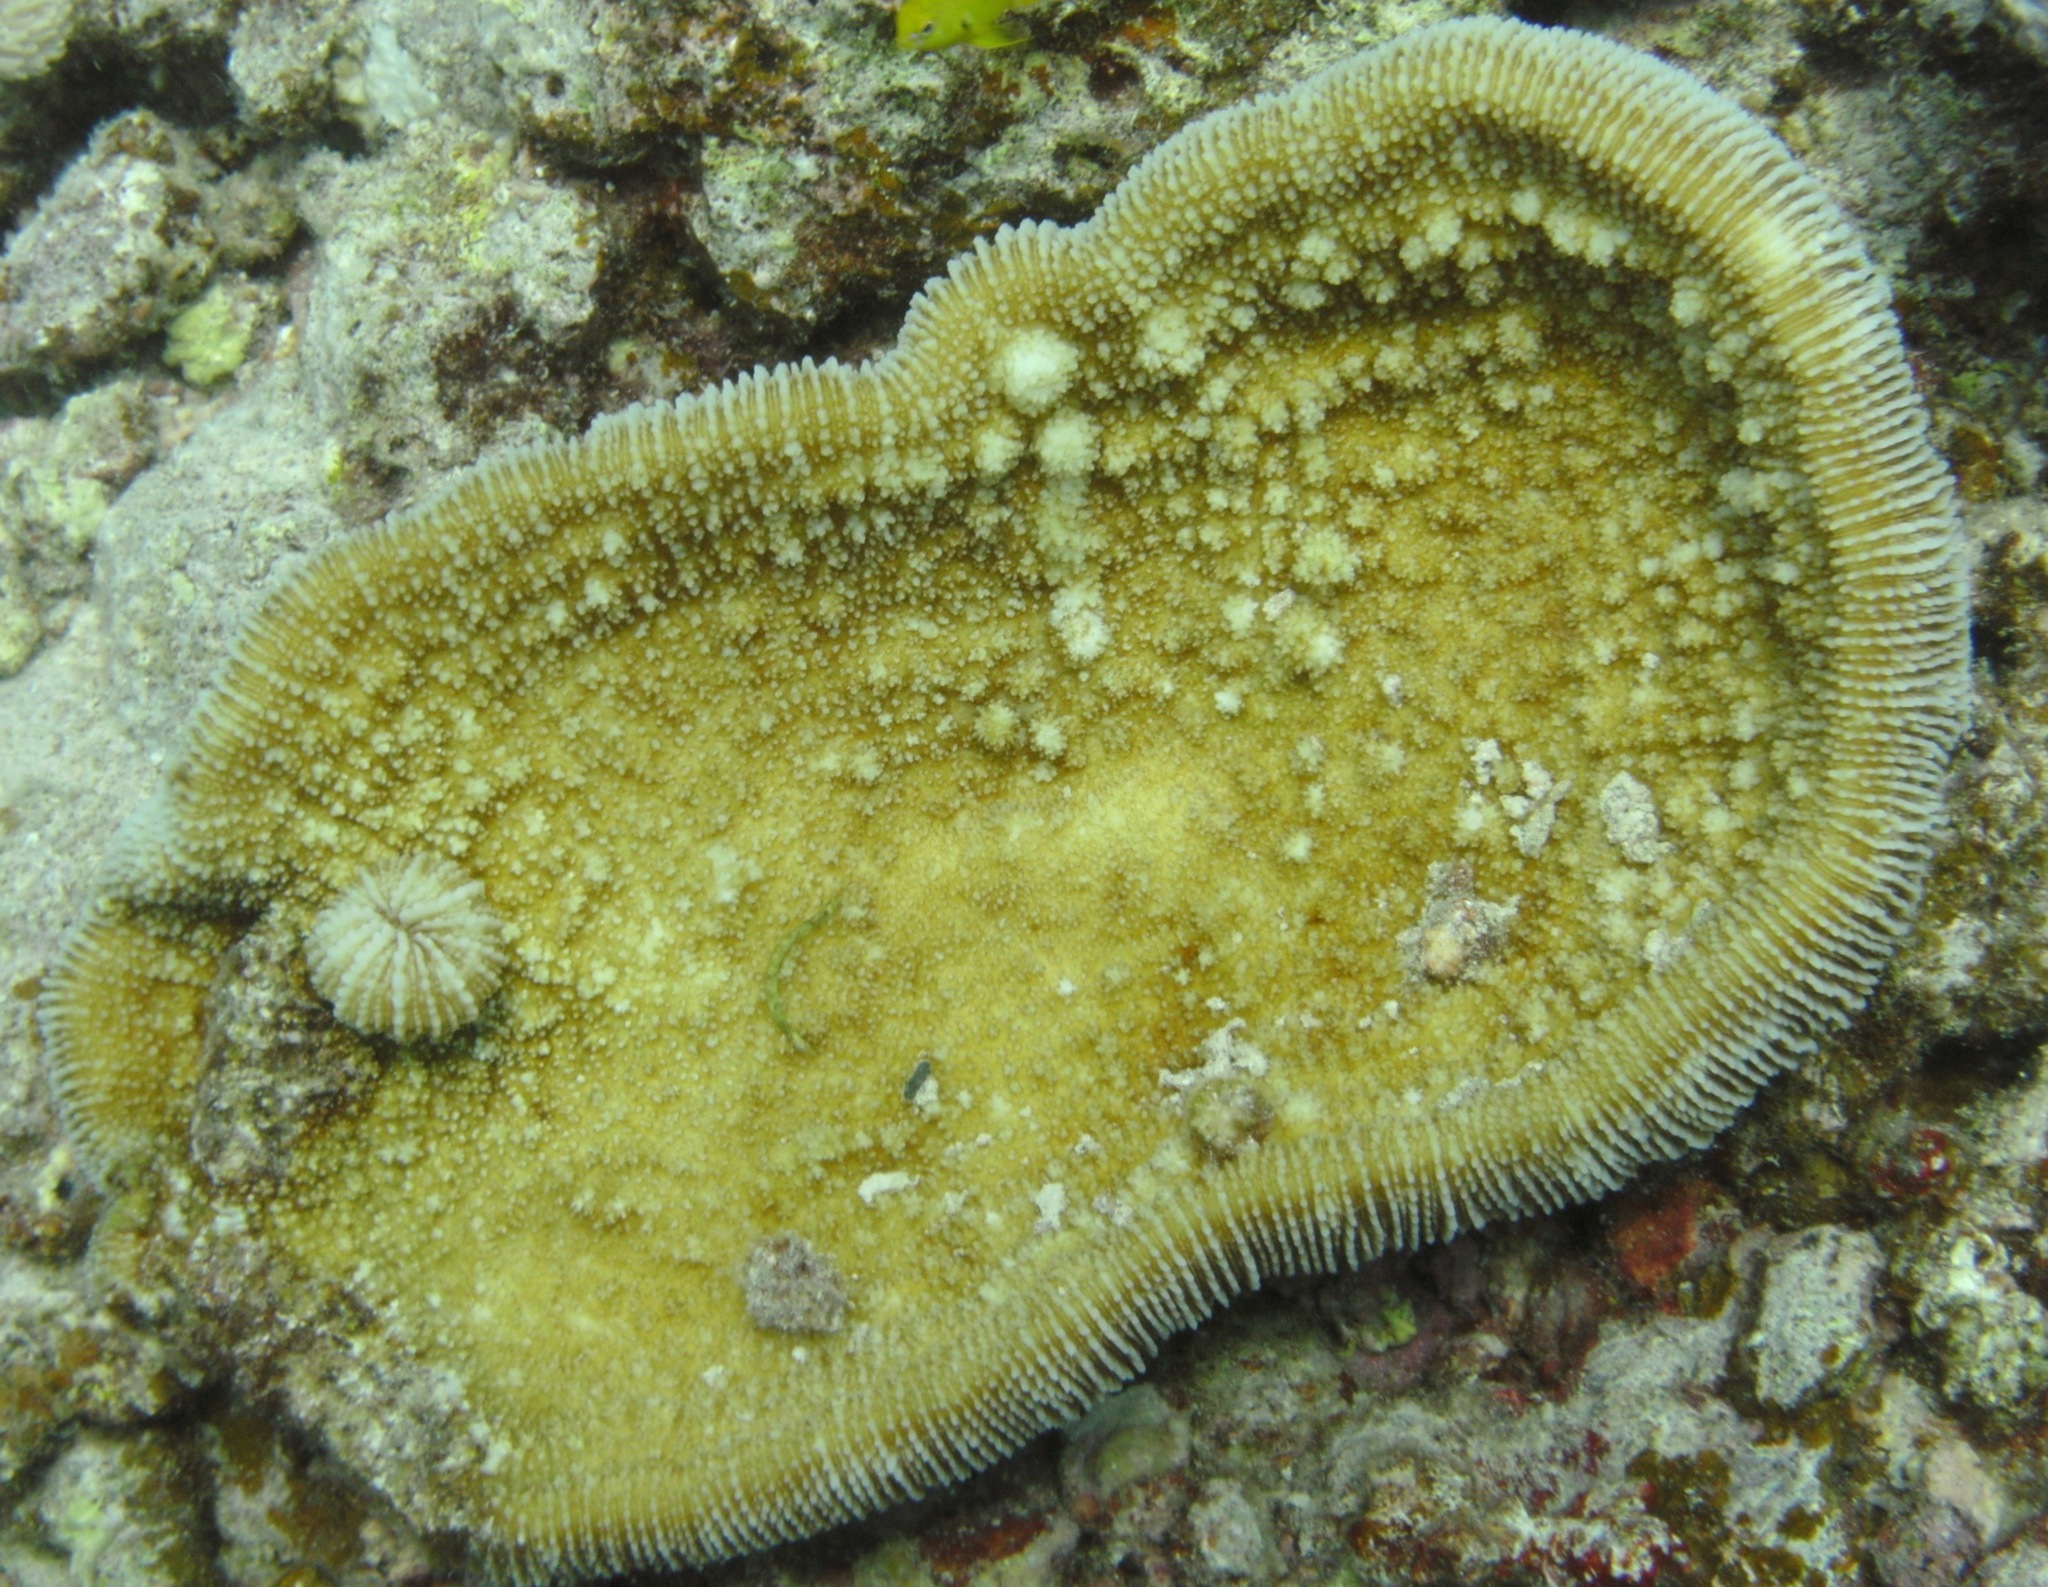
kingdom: Animalia
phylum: Cnidaria
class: Anthozoa
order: Scleractinia
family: Fungiidae
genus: Ctenactis
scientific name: Ctenactis crassa
